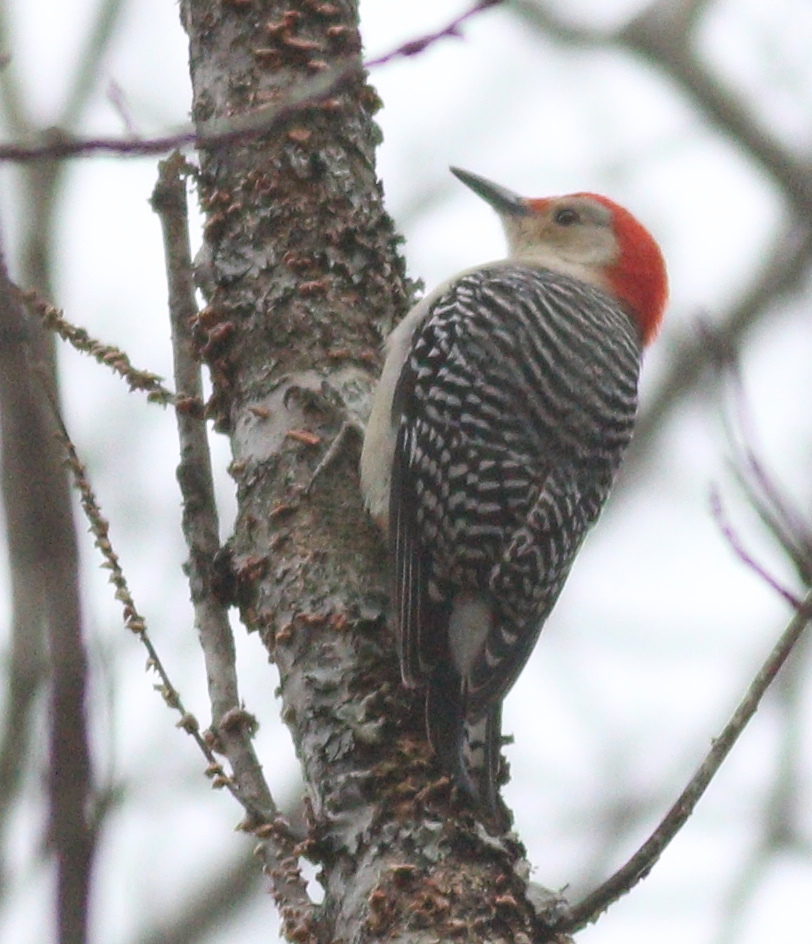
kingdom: Animalia
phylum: Chordata
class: Aves
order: Piciformes
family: Picidae
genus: Melanerpes
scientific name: Melanerpes carolinus
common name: Red-bellied woodpecker
